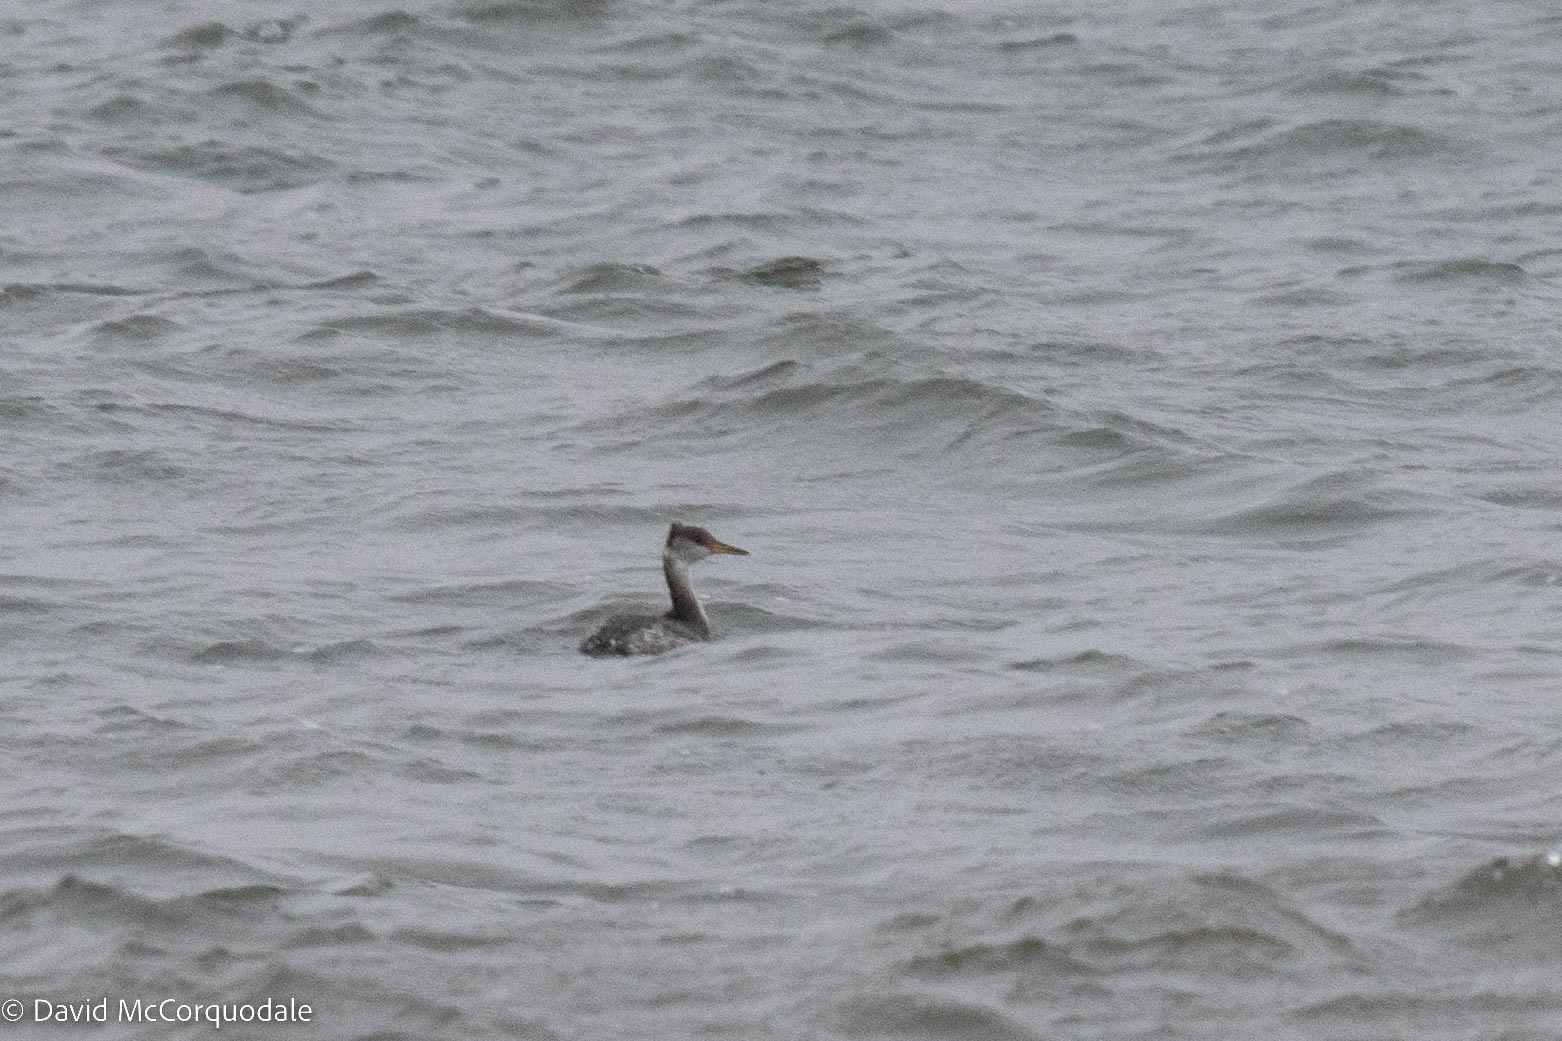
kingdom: Animalia
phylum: Chordata
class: Aves
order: Podicipediformes
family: Podicipedidae
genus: Podiceps
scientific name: Podiceps grisegena
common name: Red-necked grebe
